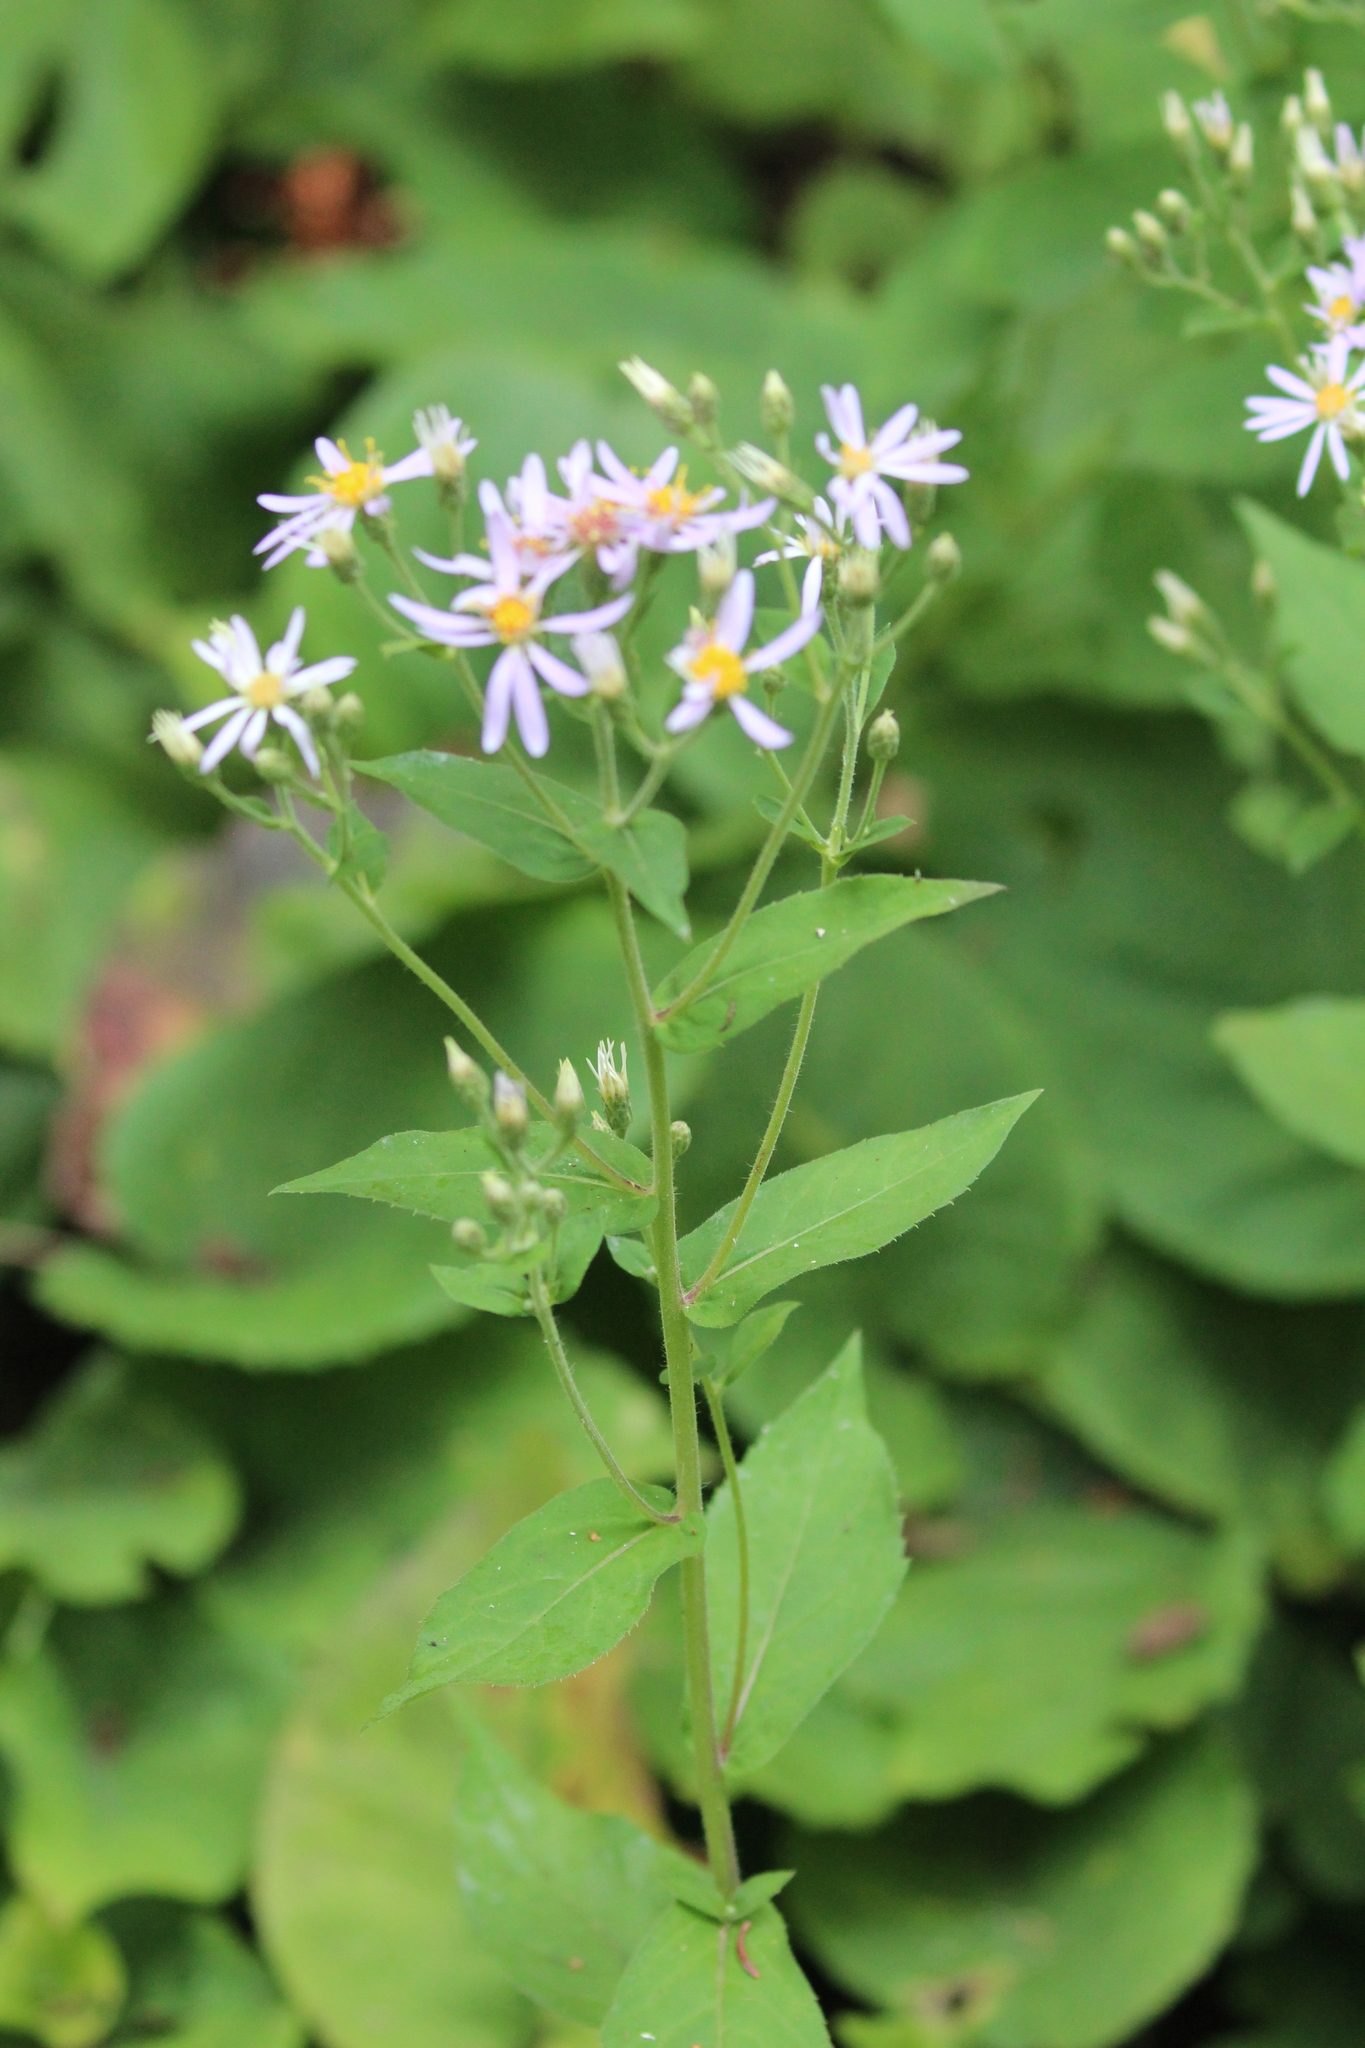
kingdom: Plantae
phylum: Tracheophyta
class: Magnoliopsida
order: Asterales
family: Asteraceae
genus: Eurybia
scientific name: Eurybia macrophylla
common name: Big-leaved aster
